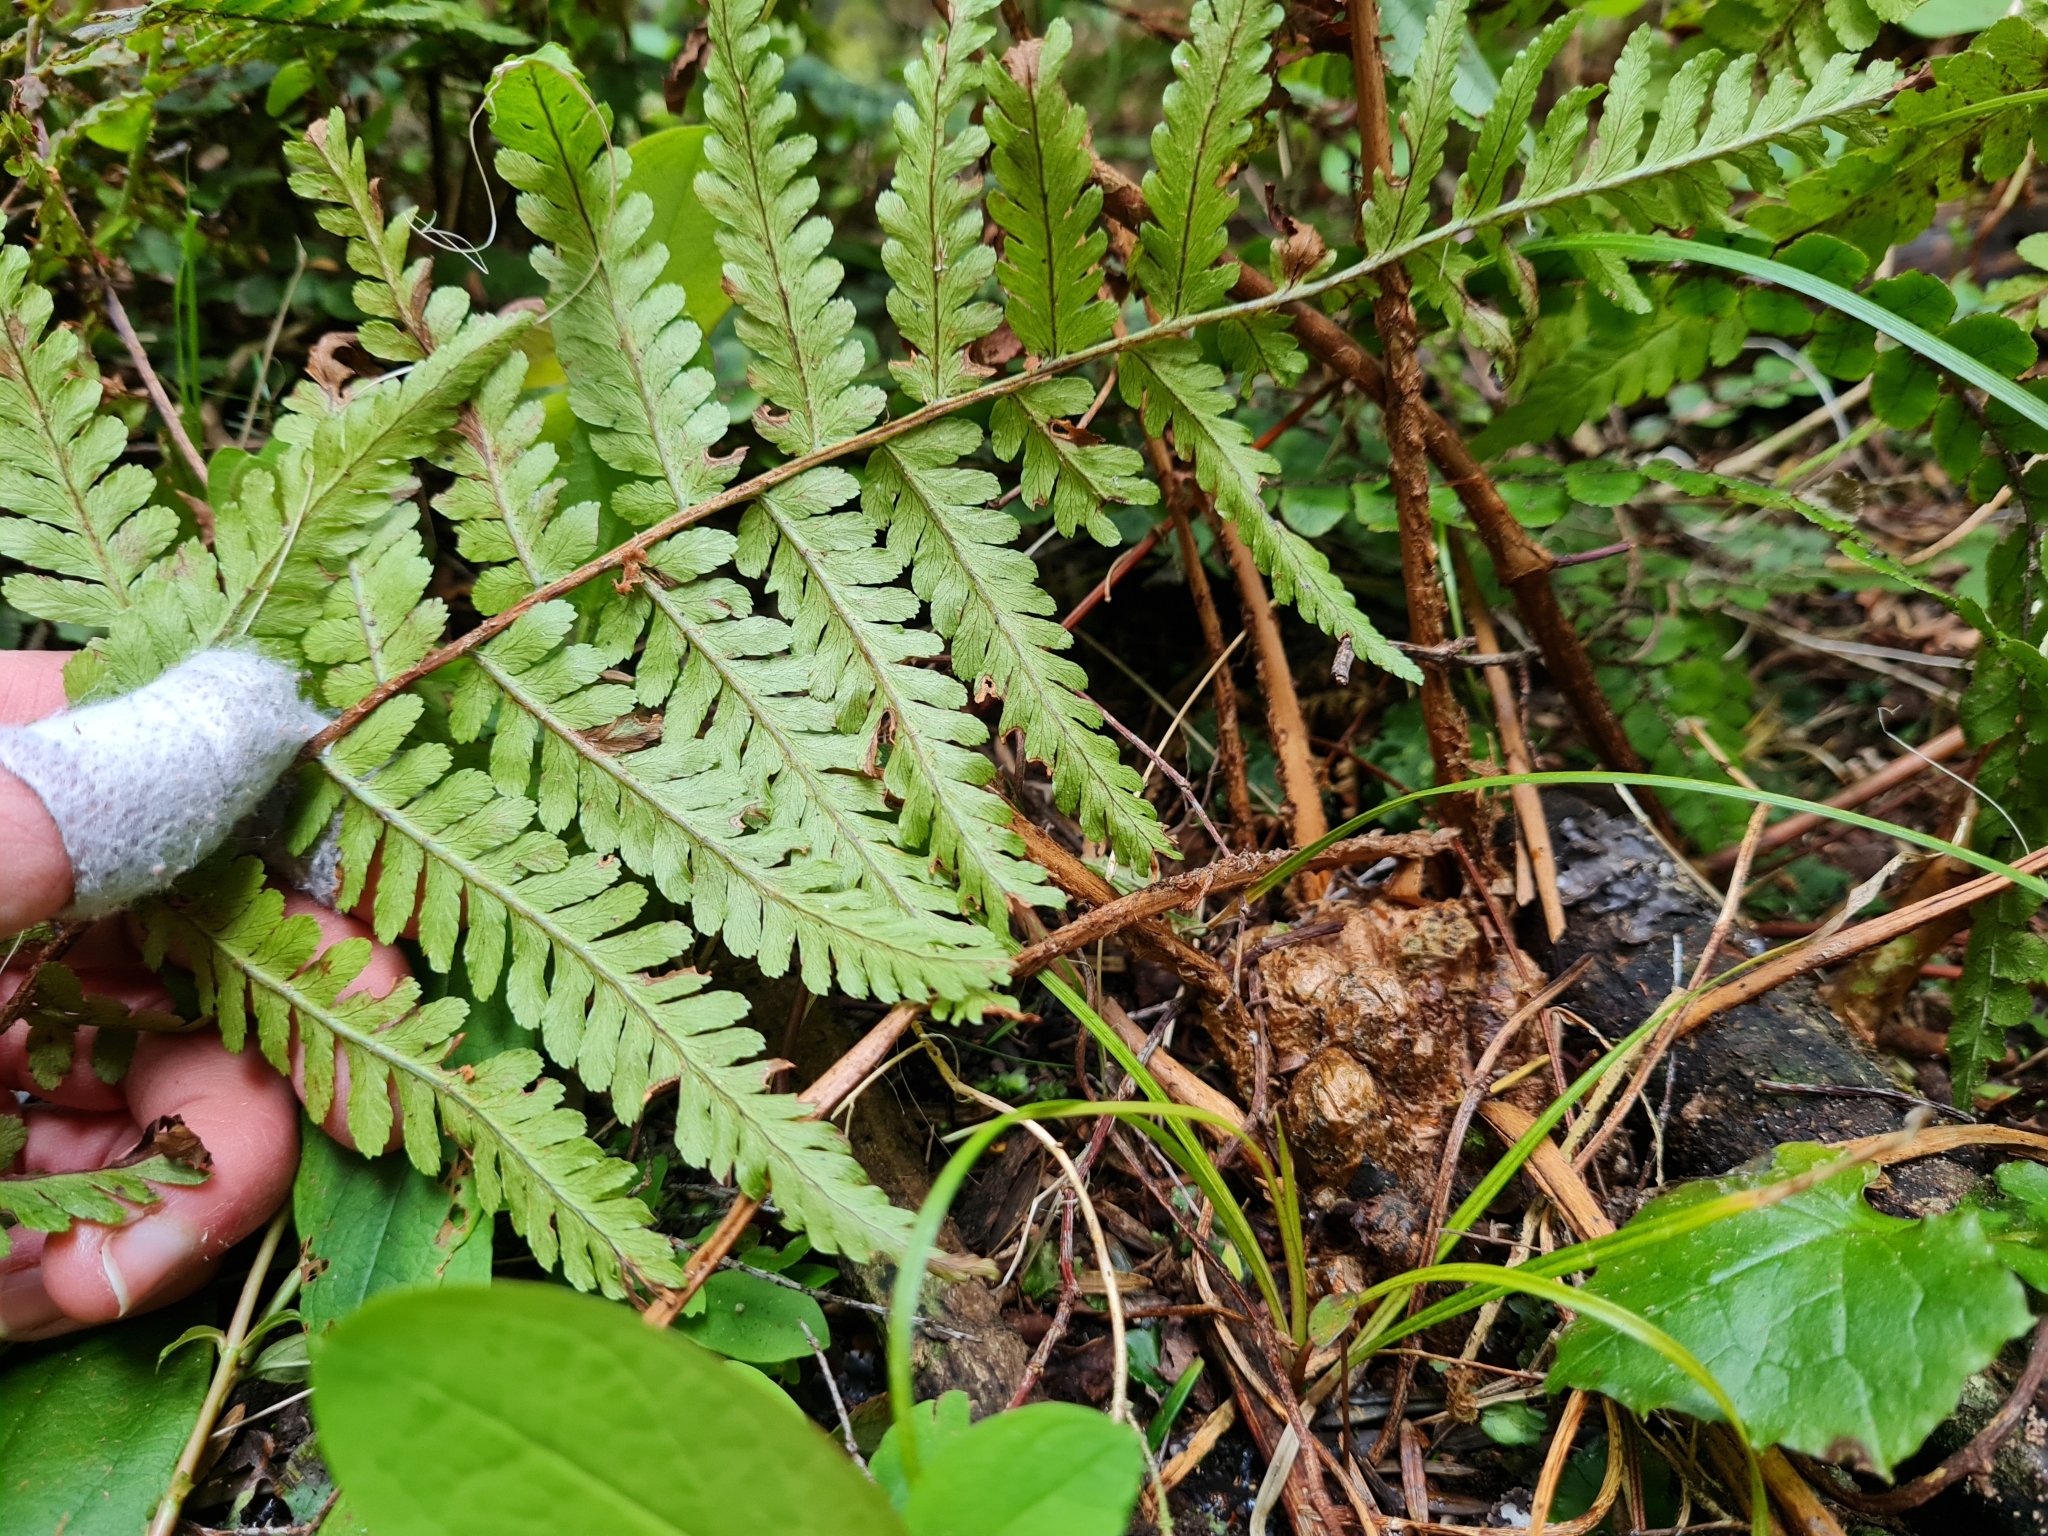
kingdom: Plantae
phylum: Tracheophyta
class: Polypodiopsida
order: Polypodiales
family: Dryopteridaceae
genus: Dryopteris
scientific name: Dryopteris filix-mas
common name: Male fern
